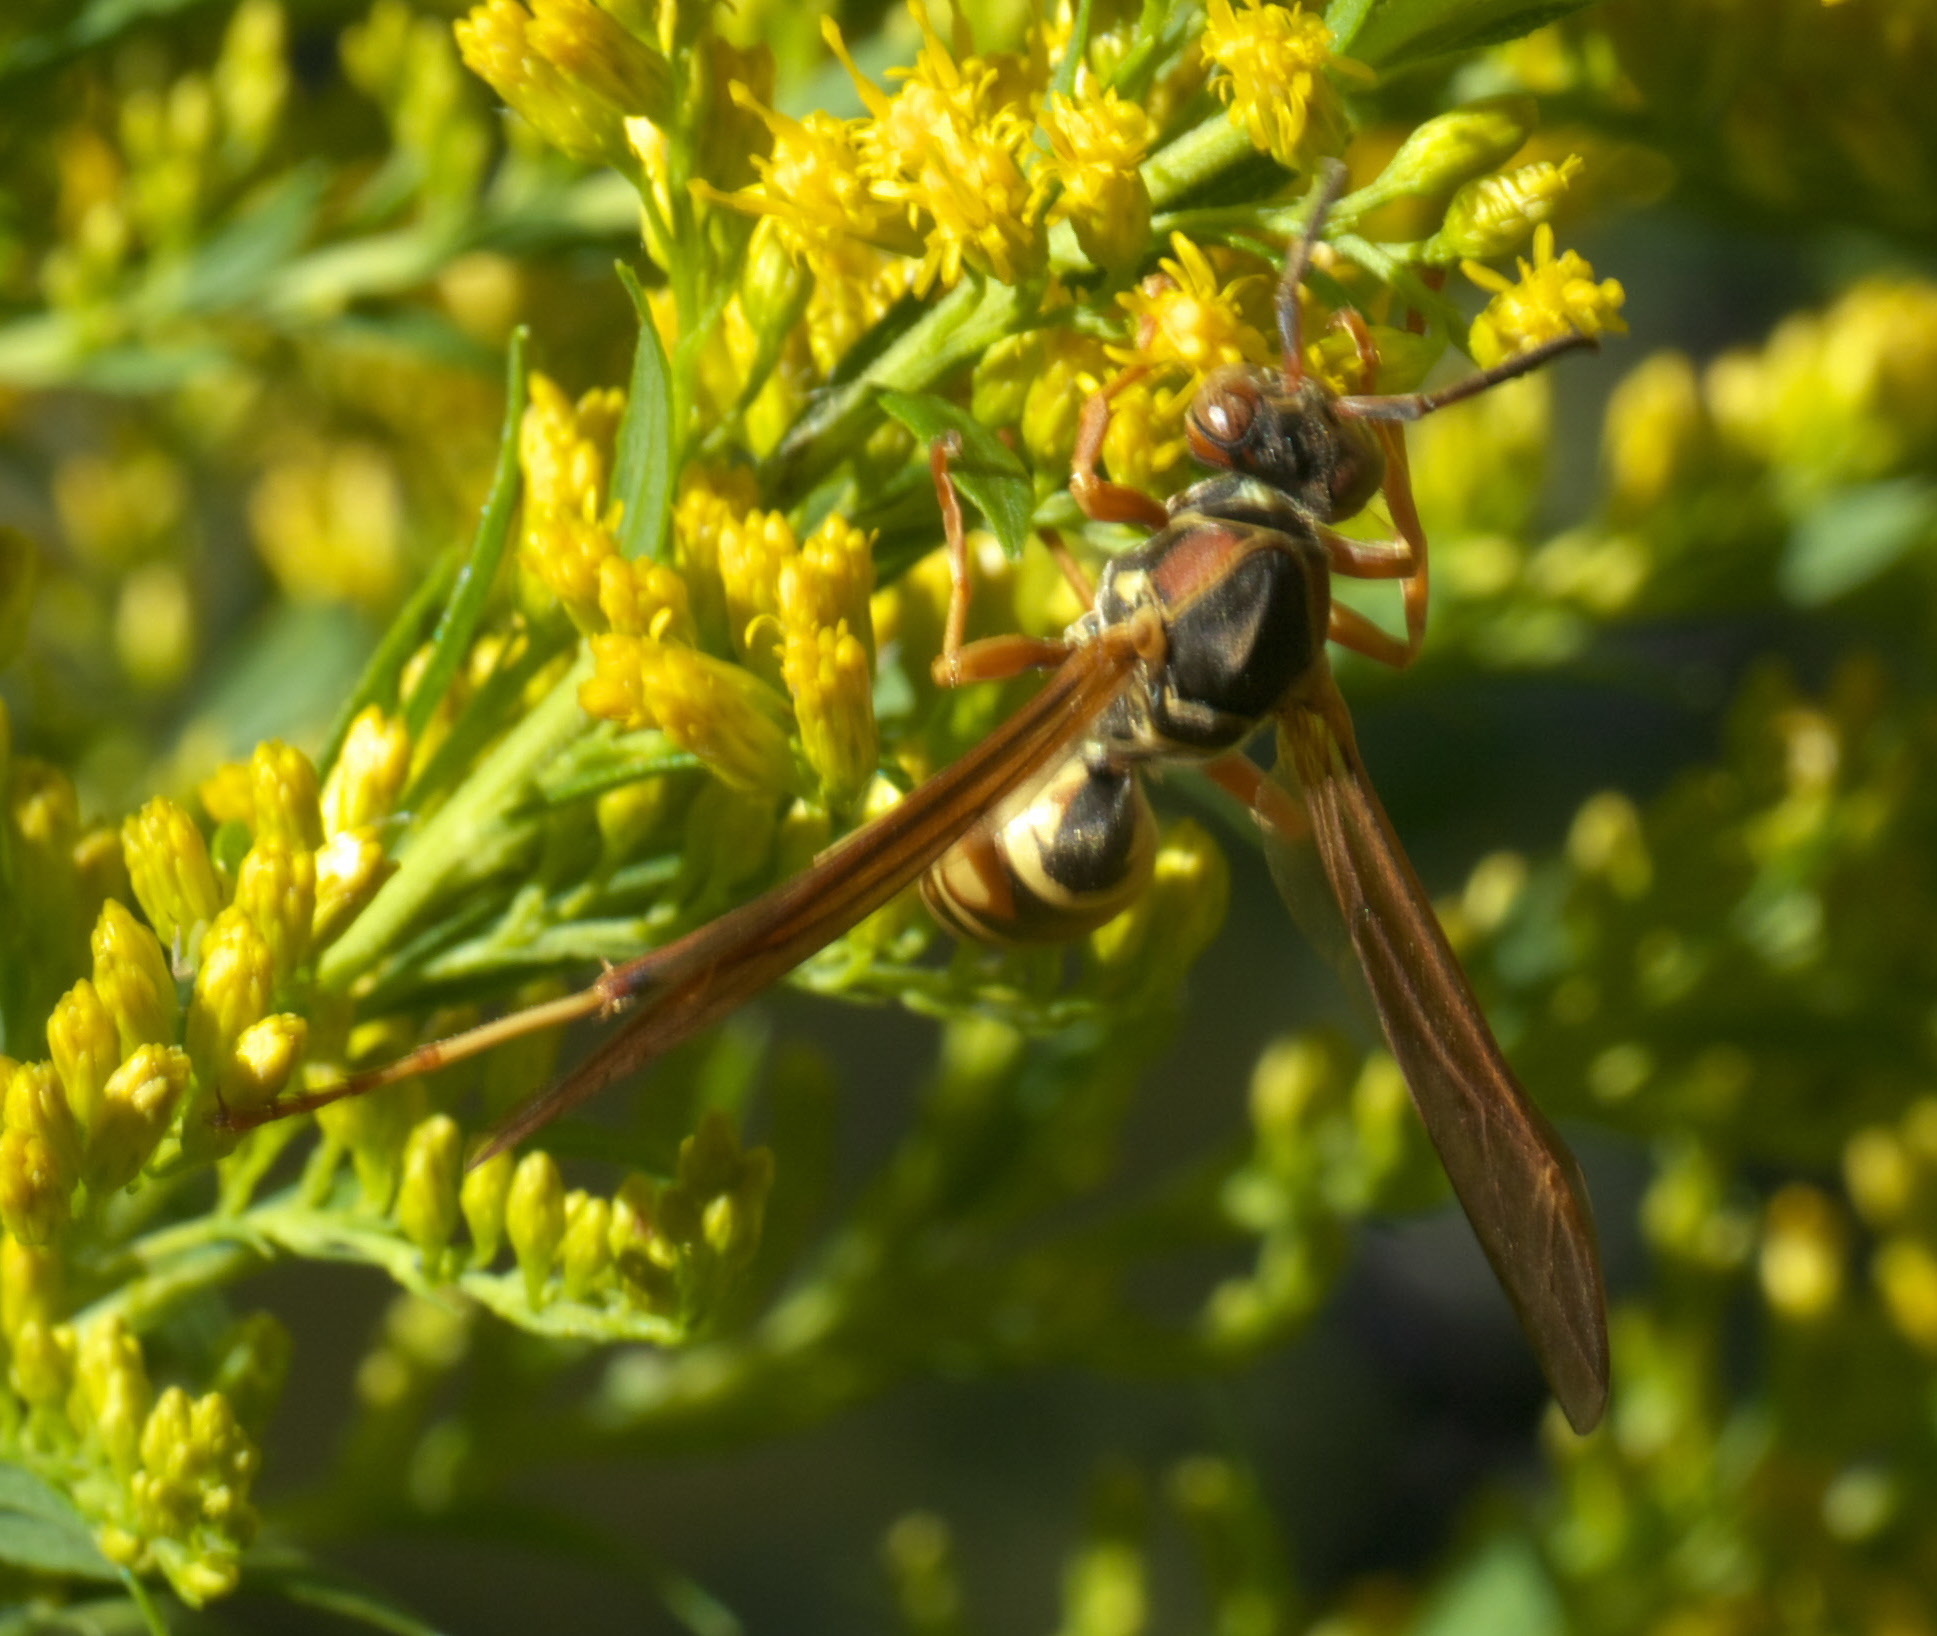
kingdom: Animalia
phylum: Arthropoda
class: Insecta
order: Hymenoptera
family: Eumenidae
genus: Polistes
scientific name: Polistes fuscatus
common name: Dark paper wasp
